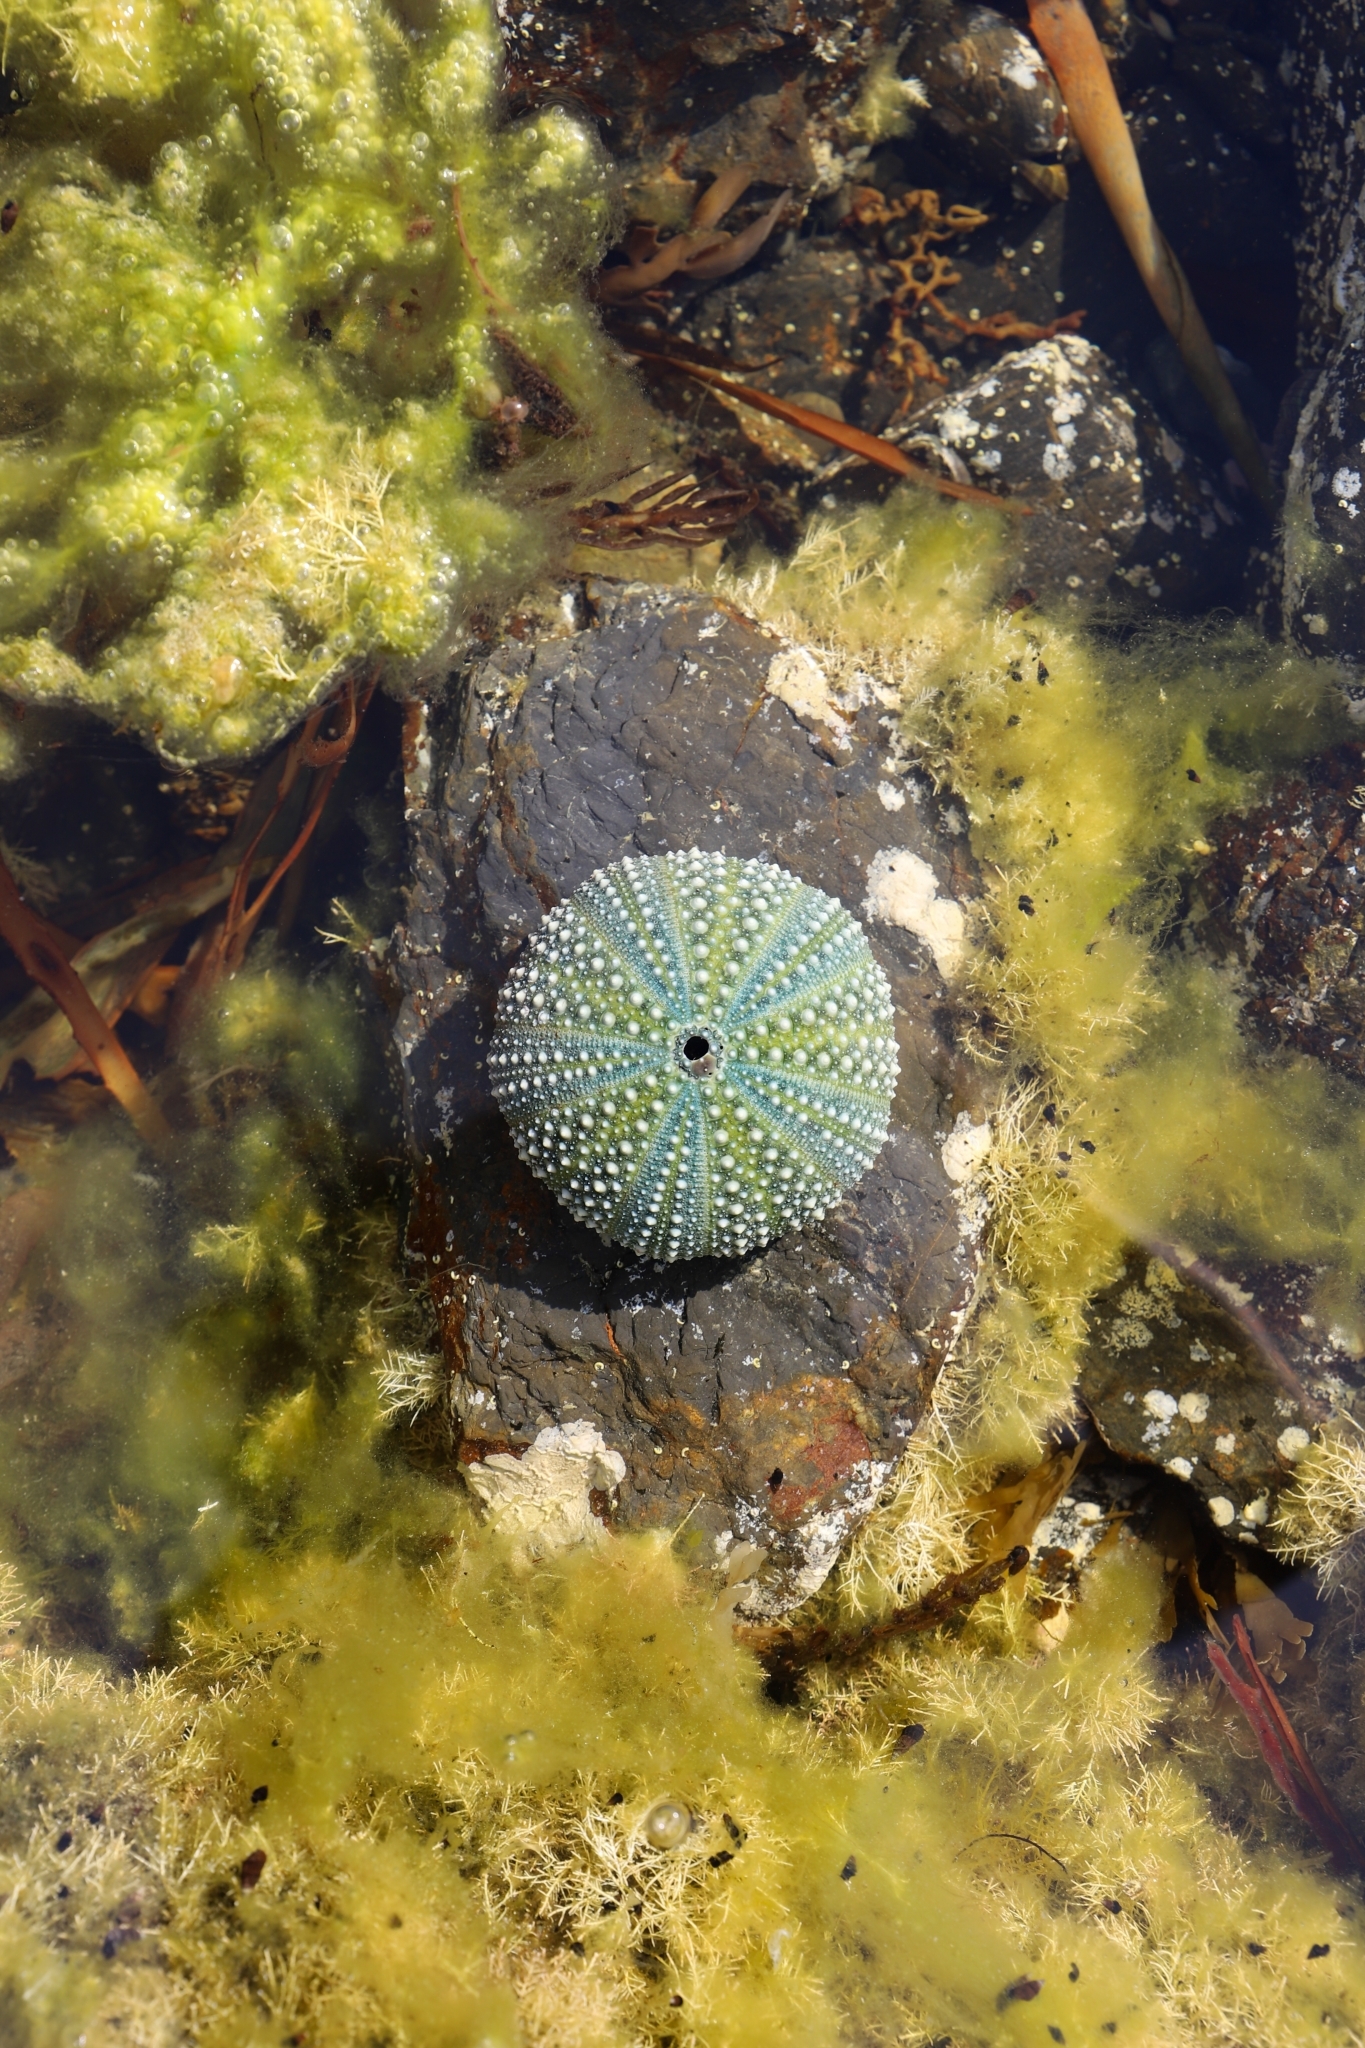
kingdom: Animalia
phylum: Echinodermata
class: Echinoidea
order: Camarodonta
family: Echinometridae
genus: Evechinus
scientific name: Evechinus chloroticus
